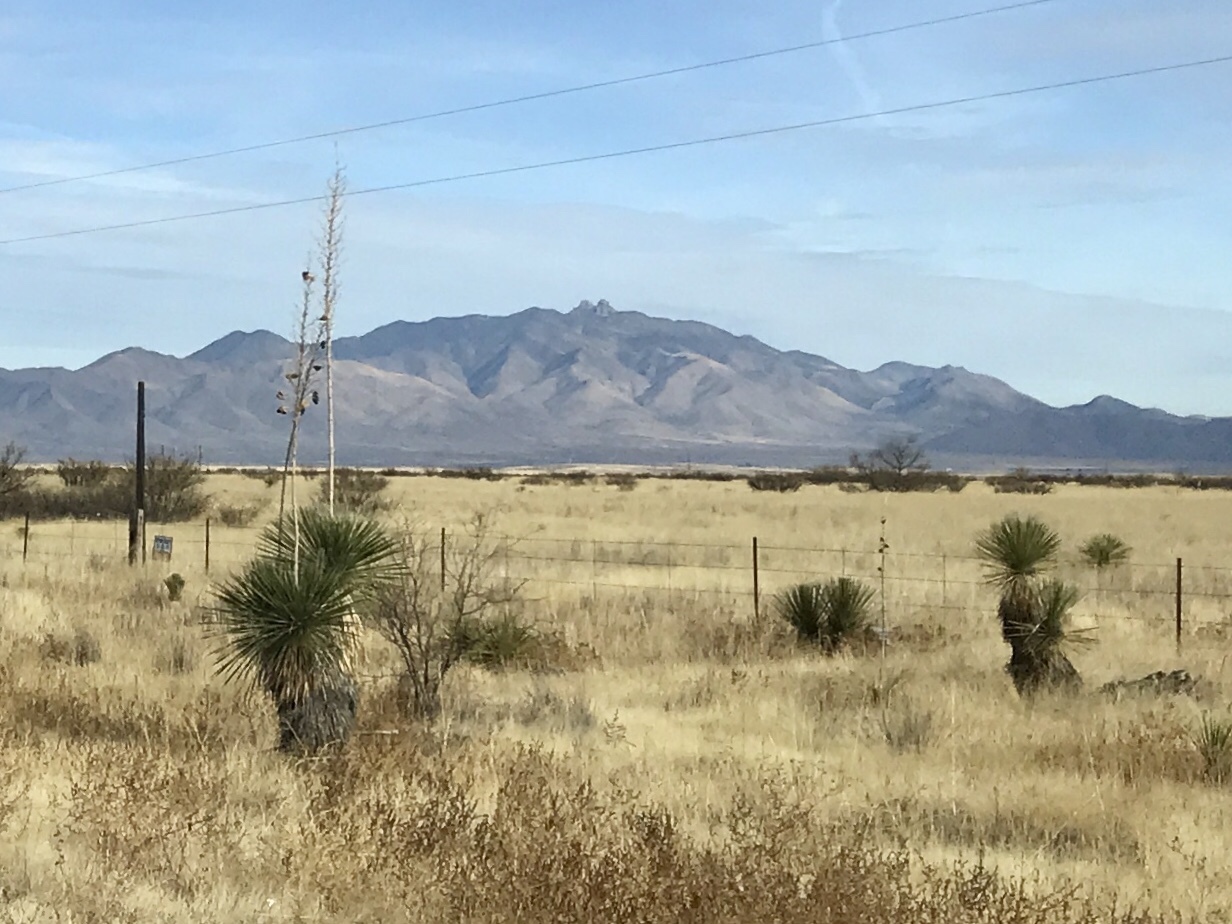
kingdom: Plantae
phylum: Tracheophyta
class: Liliopsida
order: Asparagales
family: Asparagaceae
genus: Yucca
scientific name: Yucca elata
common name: Palmella
